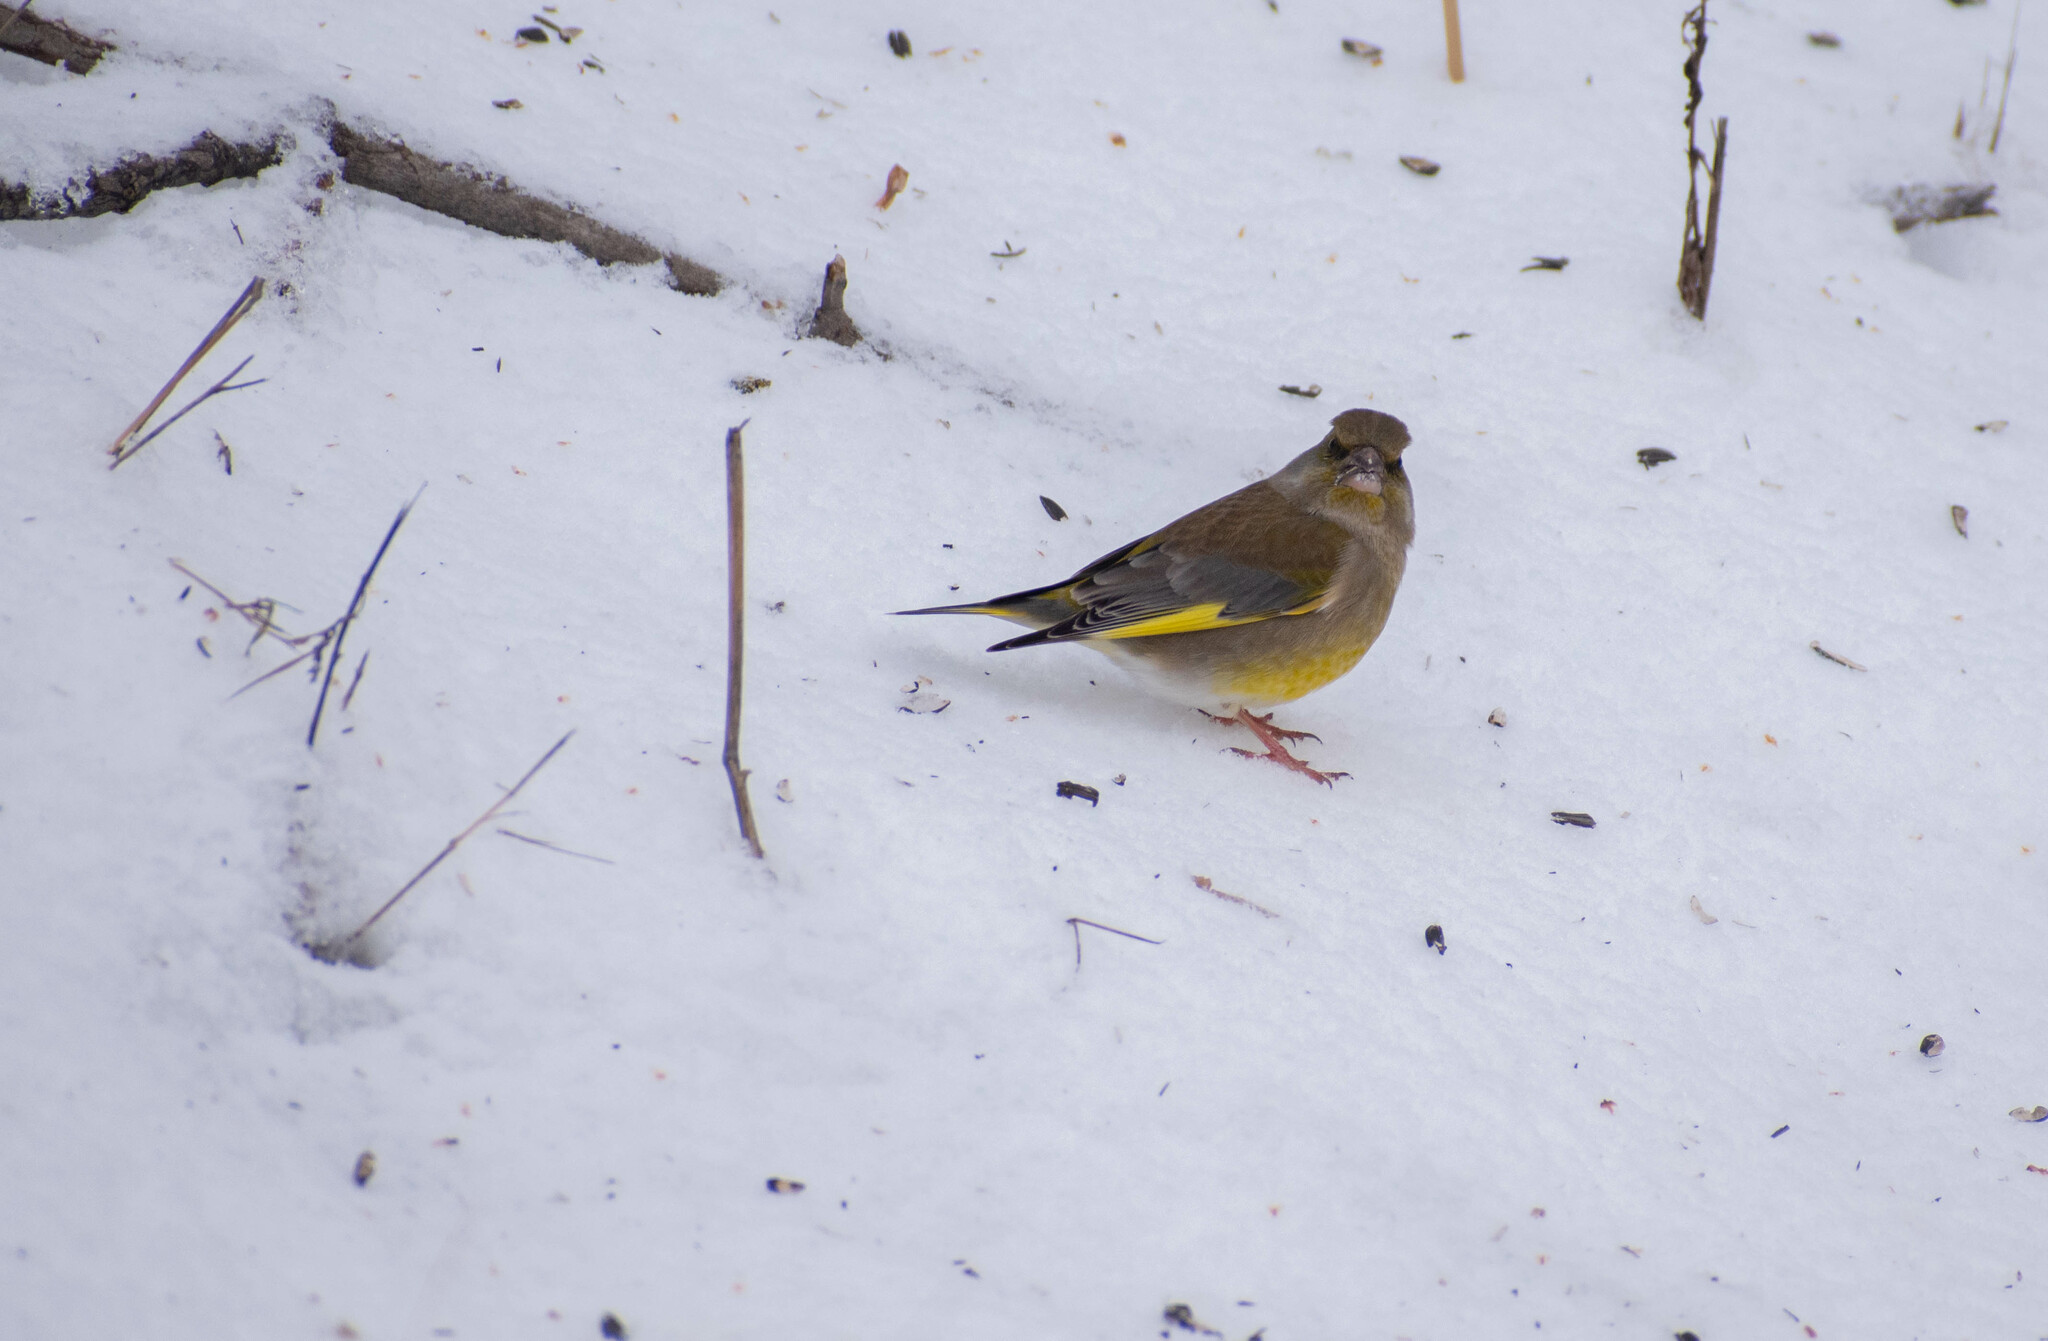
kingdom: Plantae
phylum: Tracheophyta
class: Liliopsida
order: Poales
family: Poaceae
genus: Chloris
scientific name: Chloris chloris
